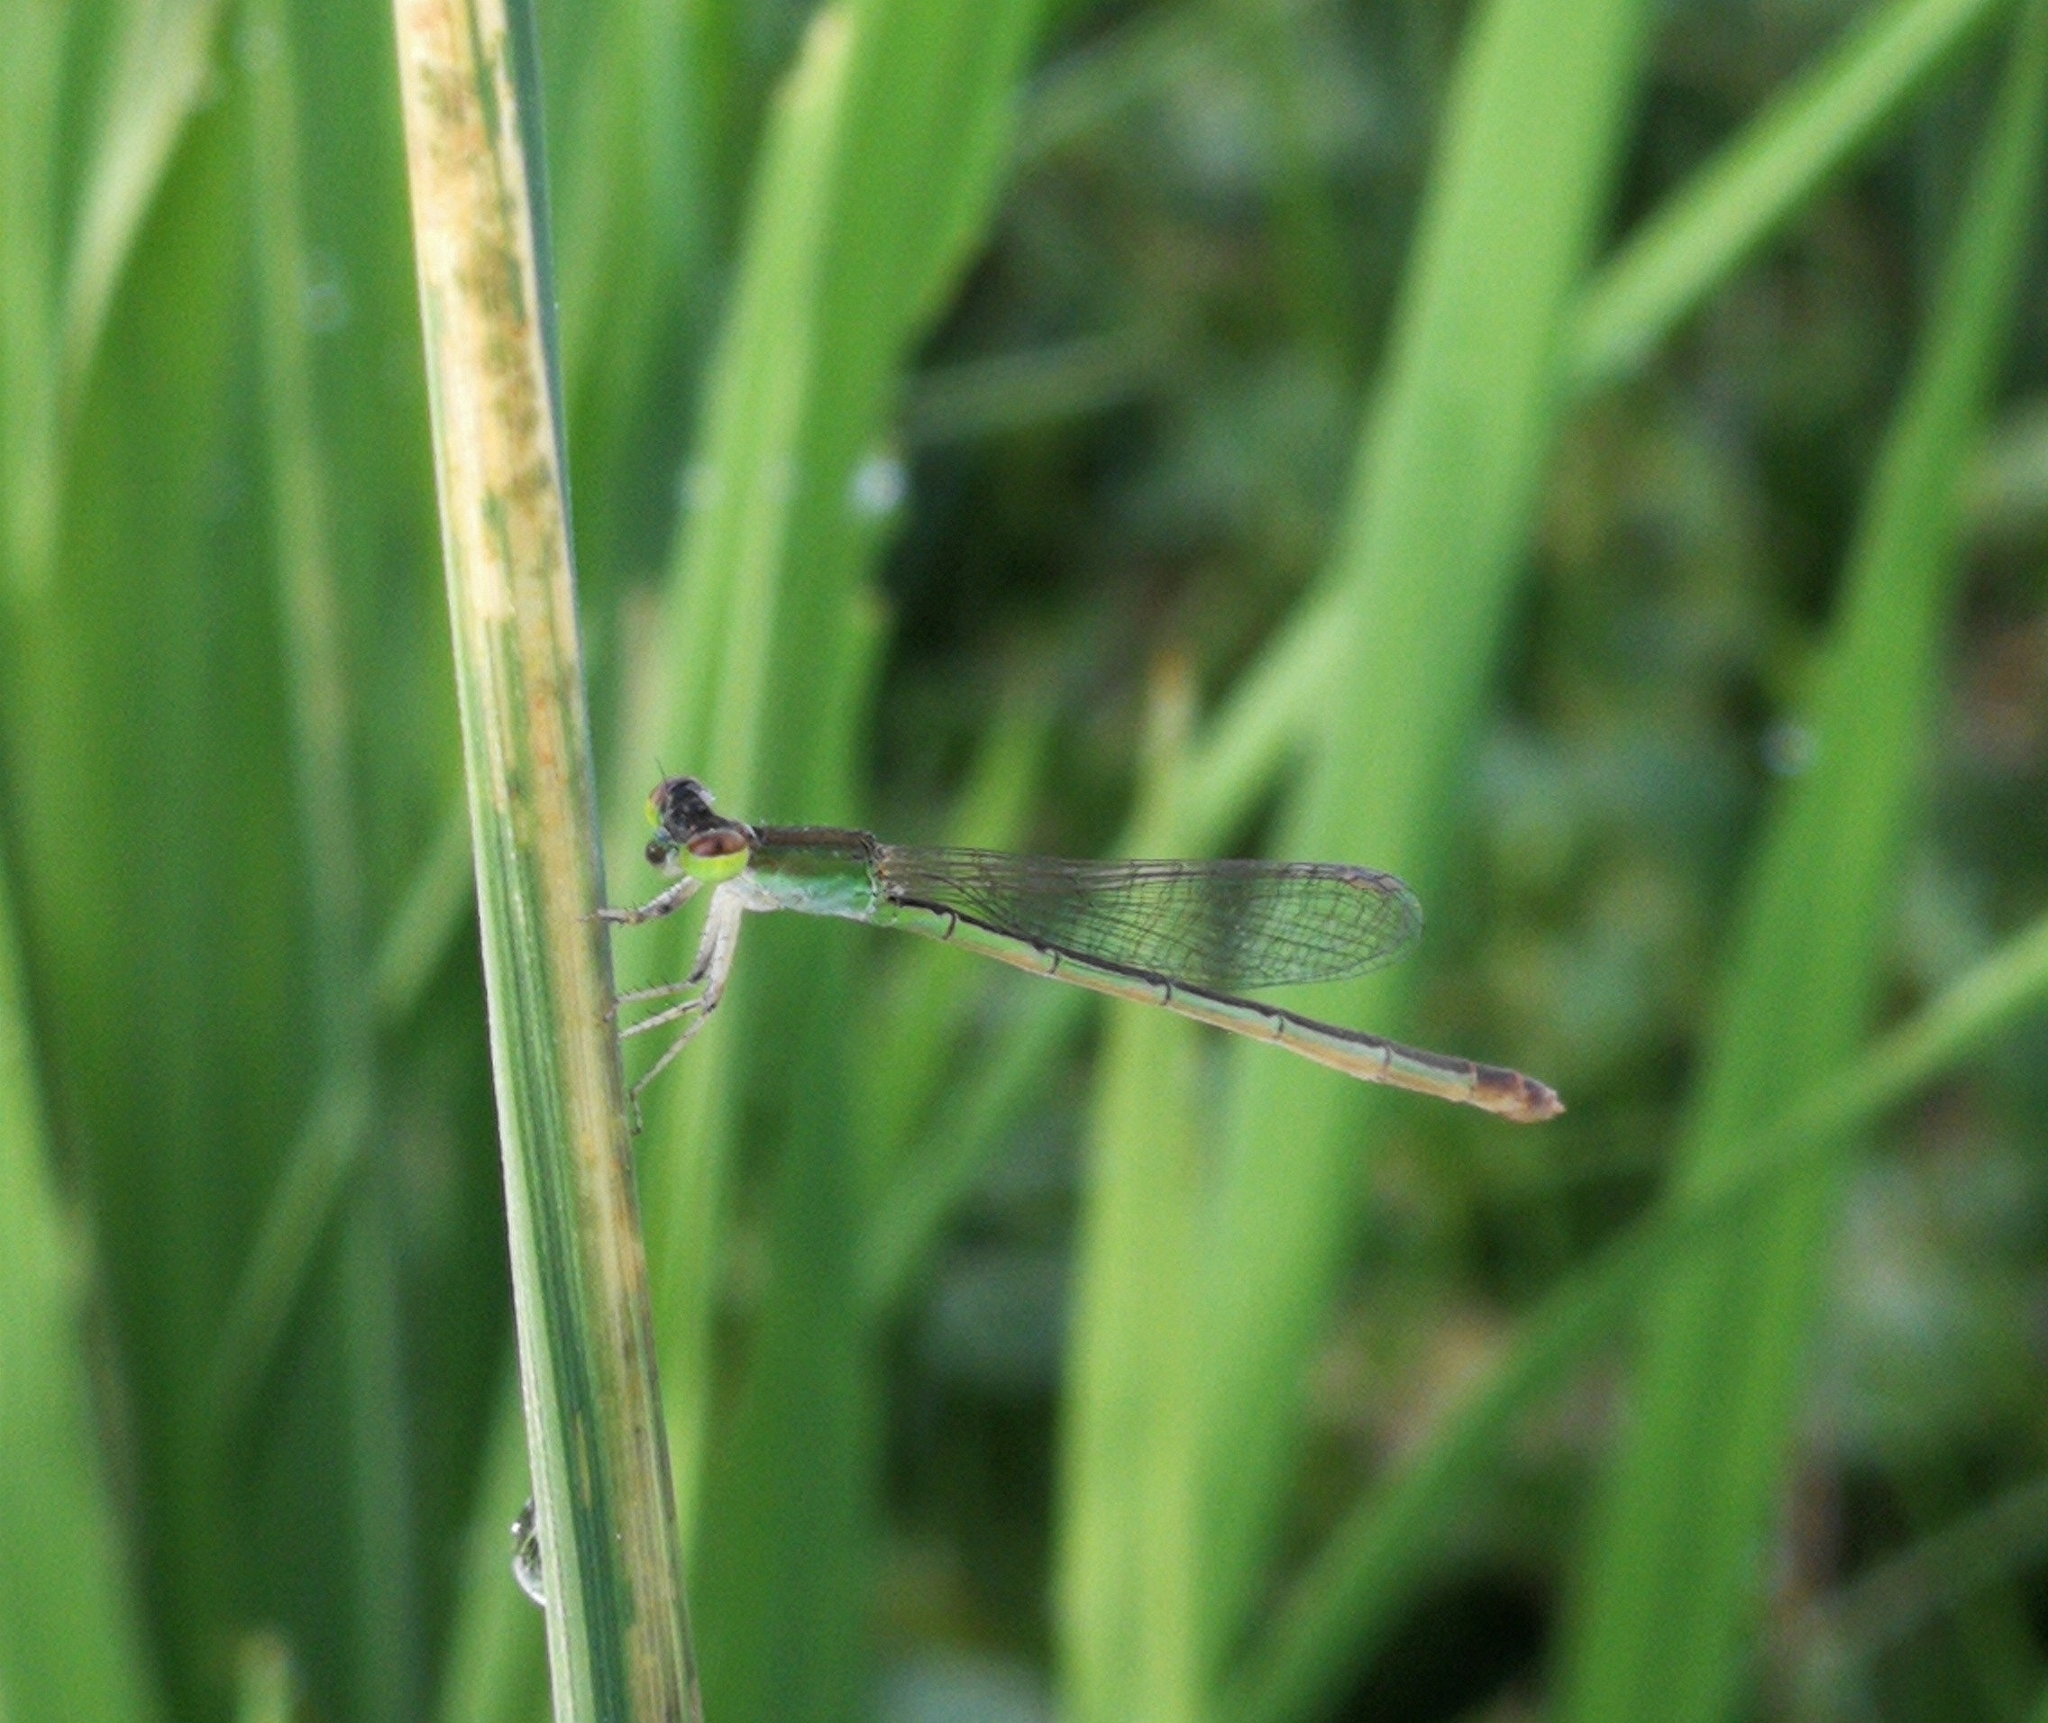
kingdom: Animalia
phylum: Arthropoda
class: Insecta
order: Odonata
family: Coenagrionidae
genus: Agriocnemis
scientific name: Agriocnemis pygmaea
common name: Pygmy wisp
